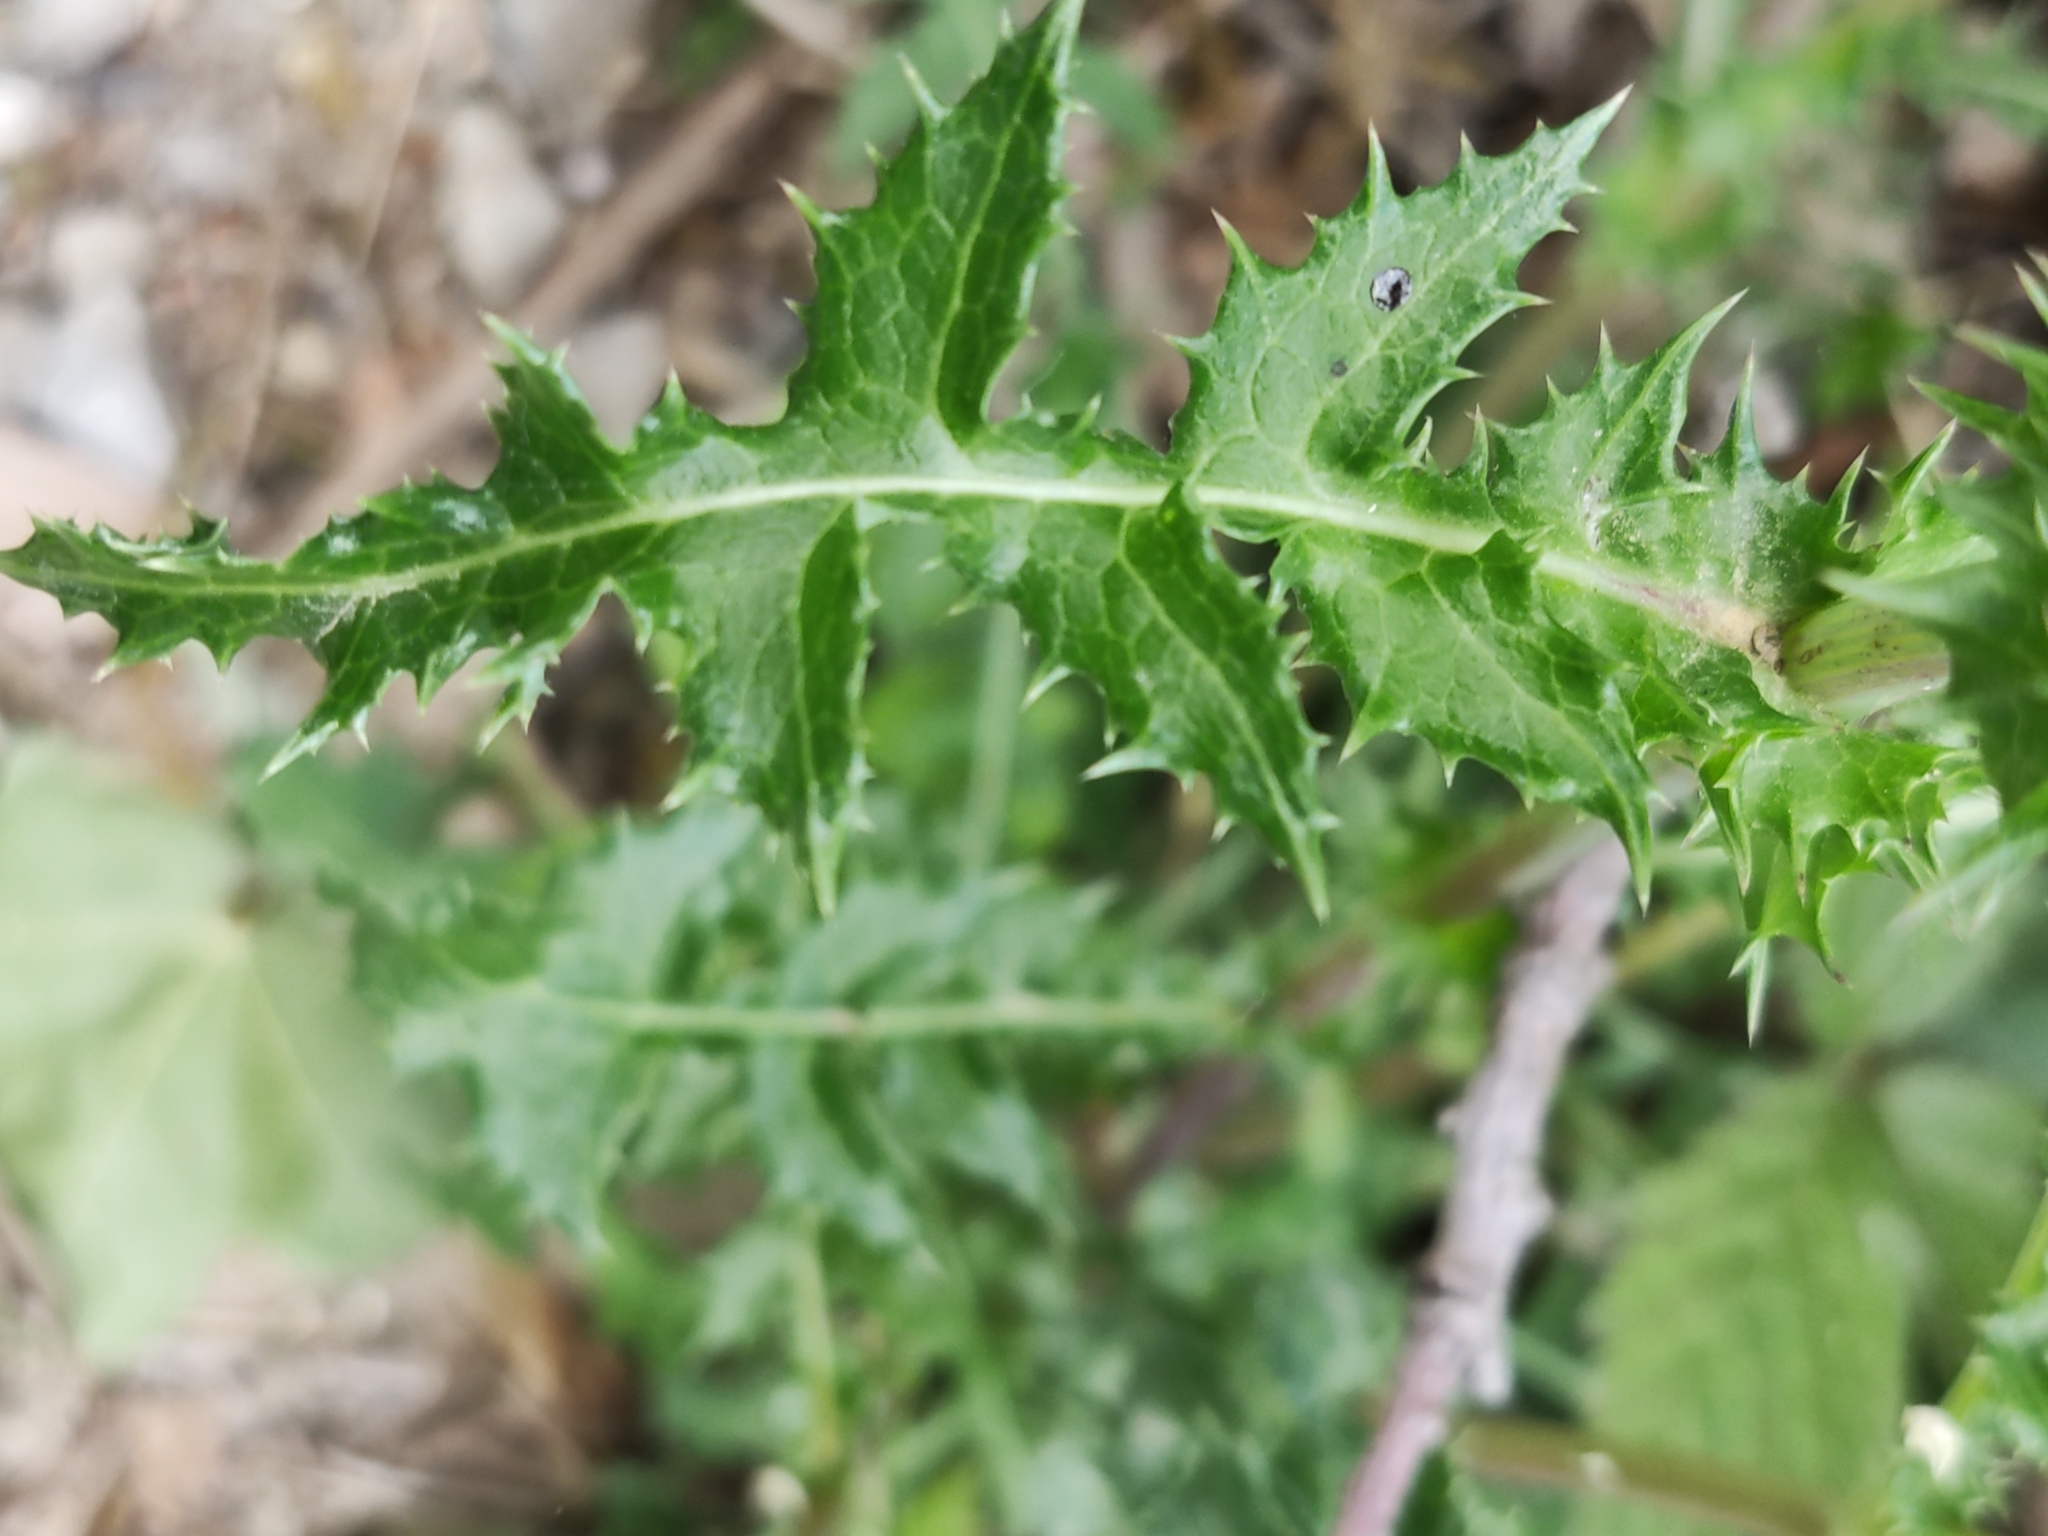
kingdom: Plantae
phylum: Tracheophyta
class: Magnoliopsida
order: Asterales
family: Asteraceae
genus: Sonchus
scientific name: Sonchus asper
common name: Prickly sow-thistle
